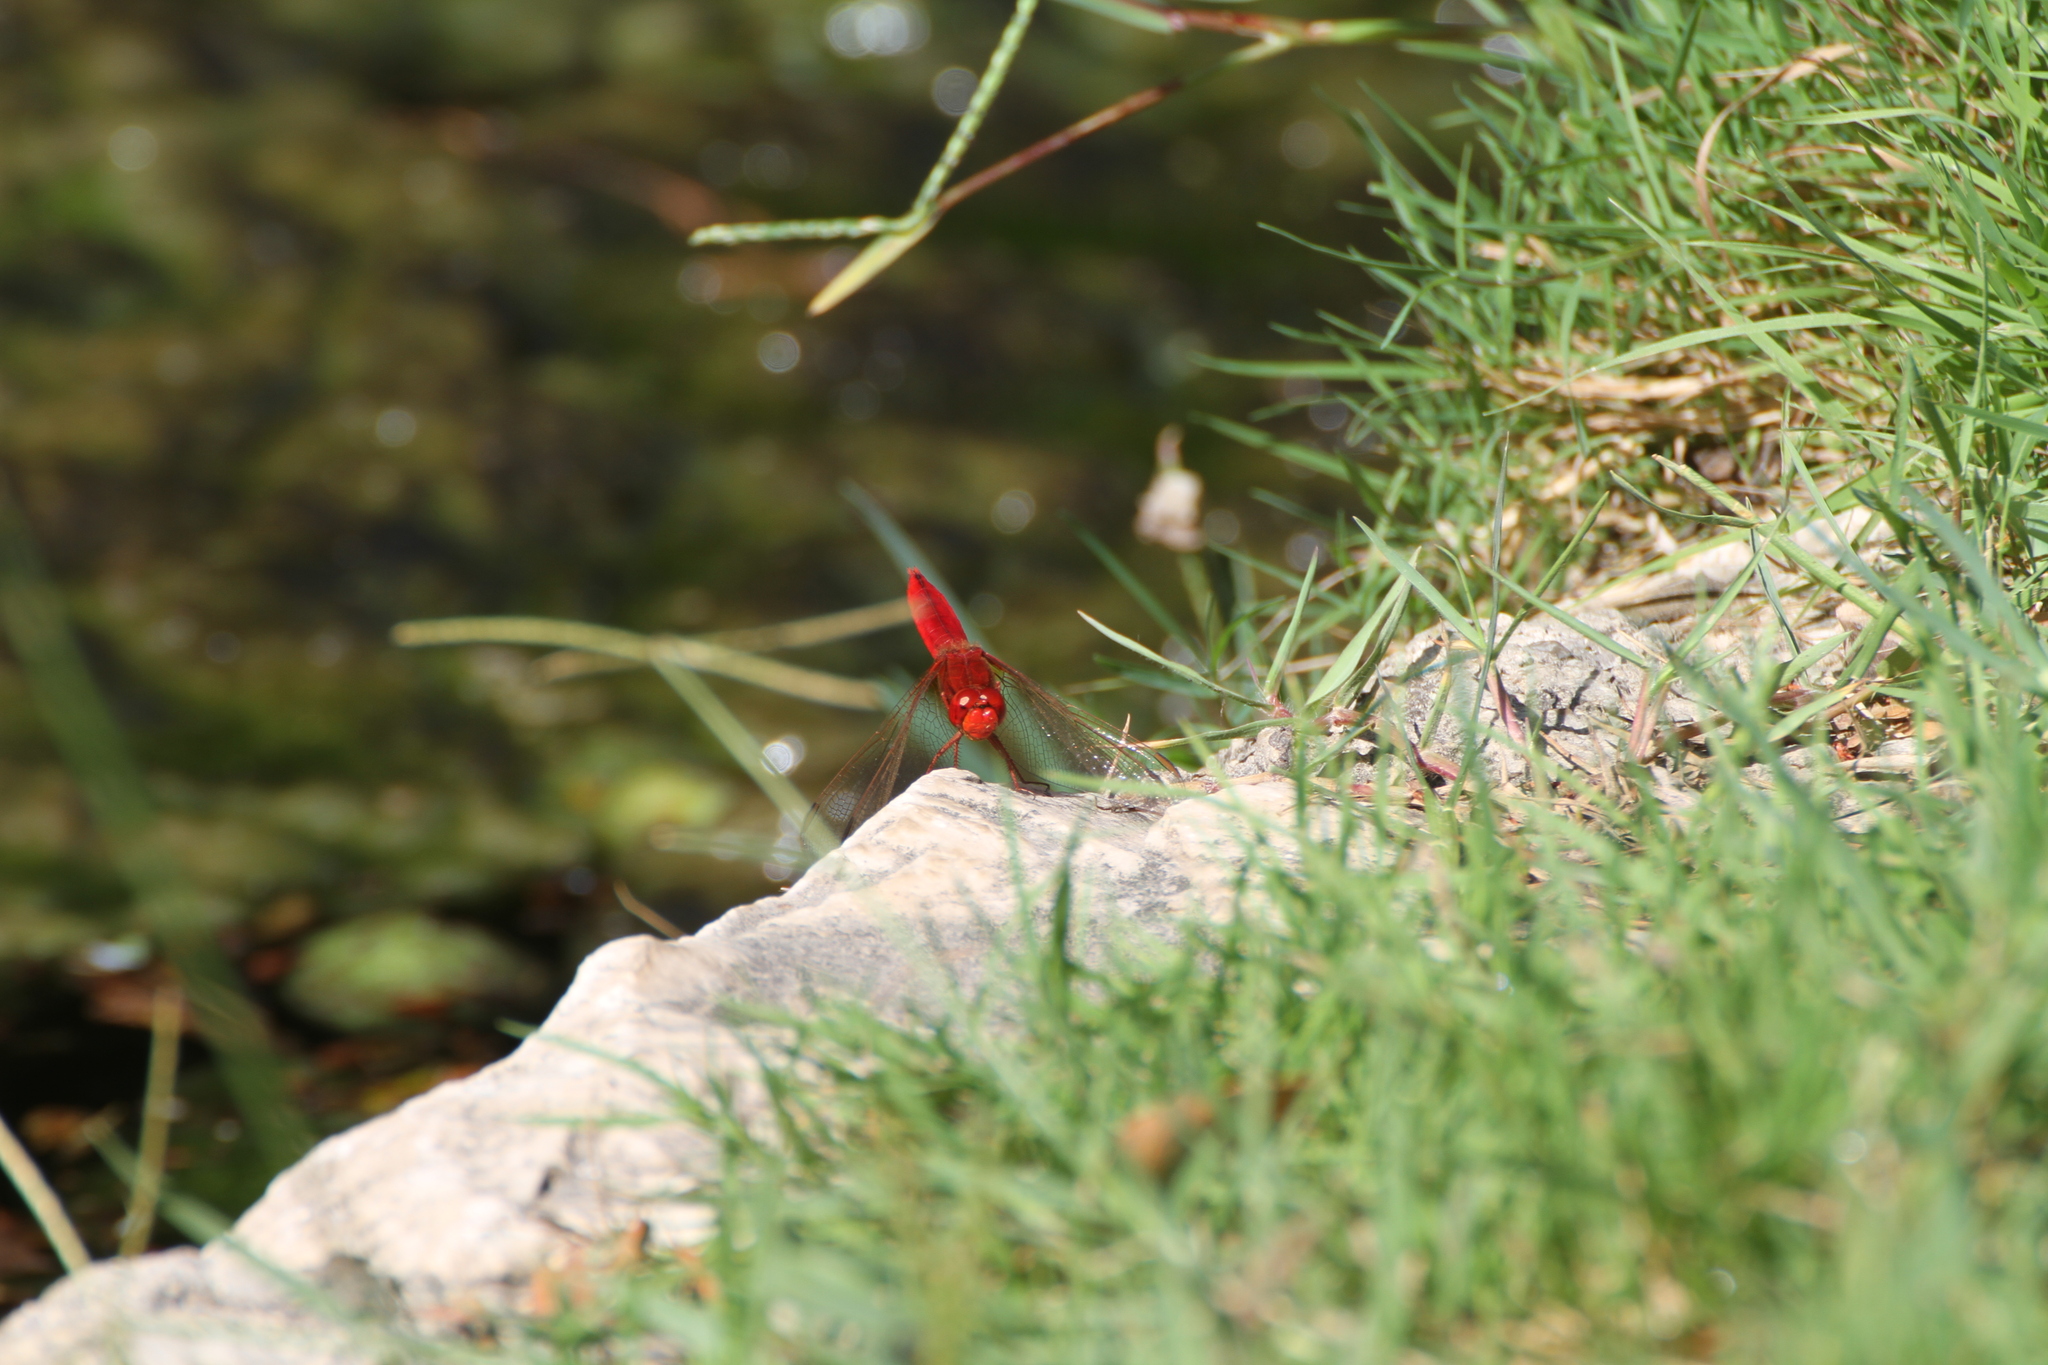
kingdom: Animalia
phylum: Arthropoda
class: Insecta
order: Odonata
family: Libellulidae
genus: Crocothemis
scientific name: Crocothemis erythraea
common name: Scarlet dragonfly
